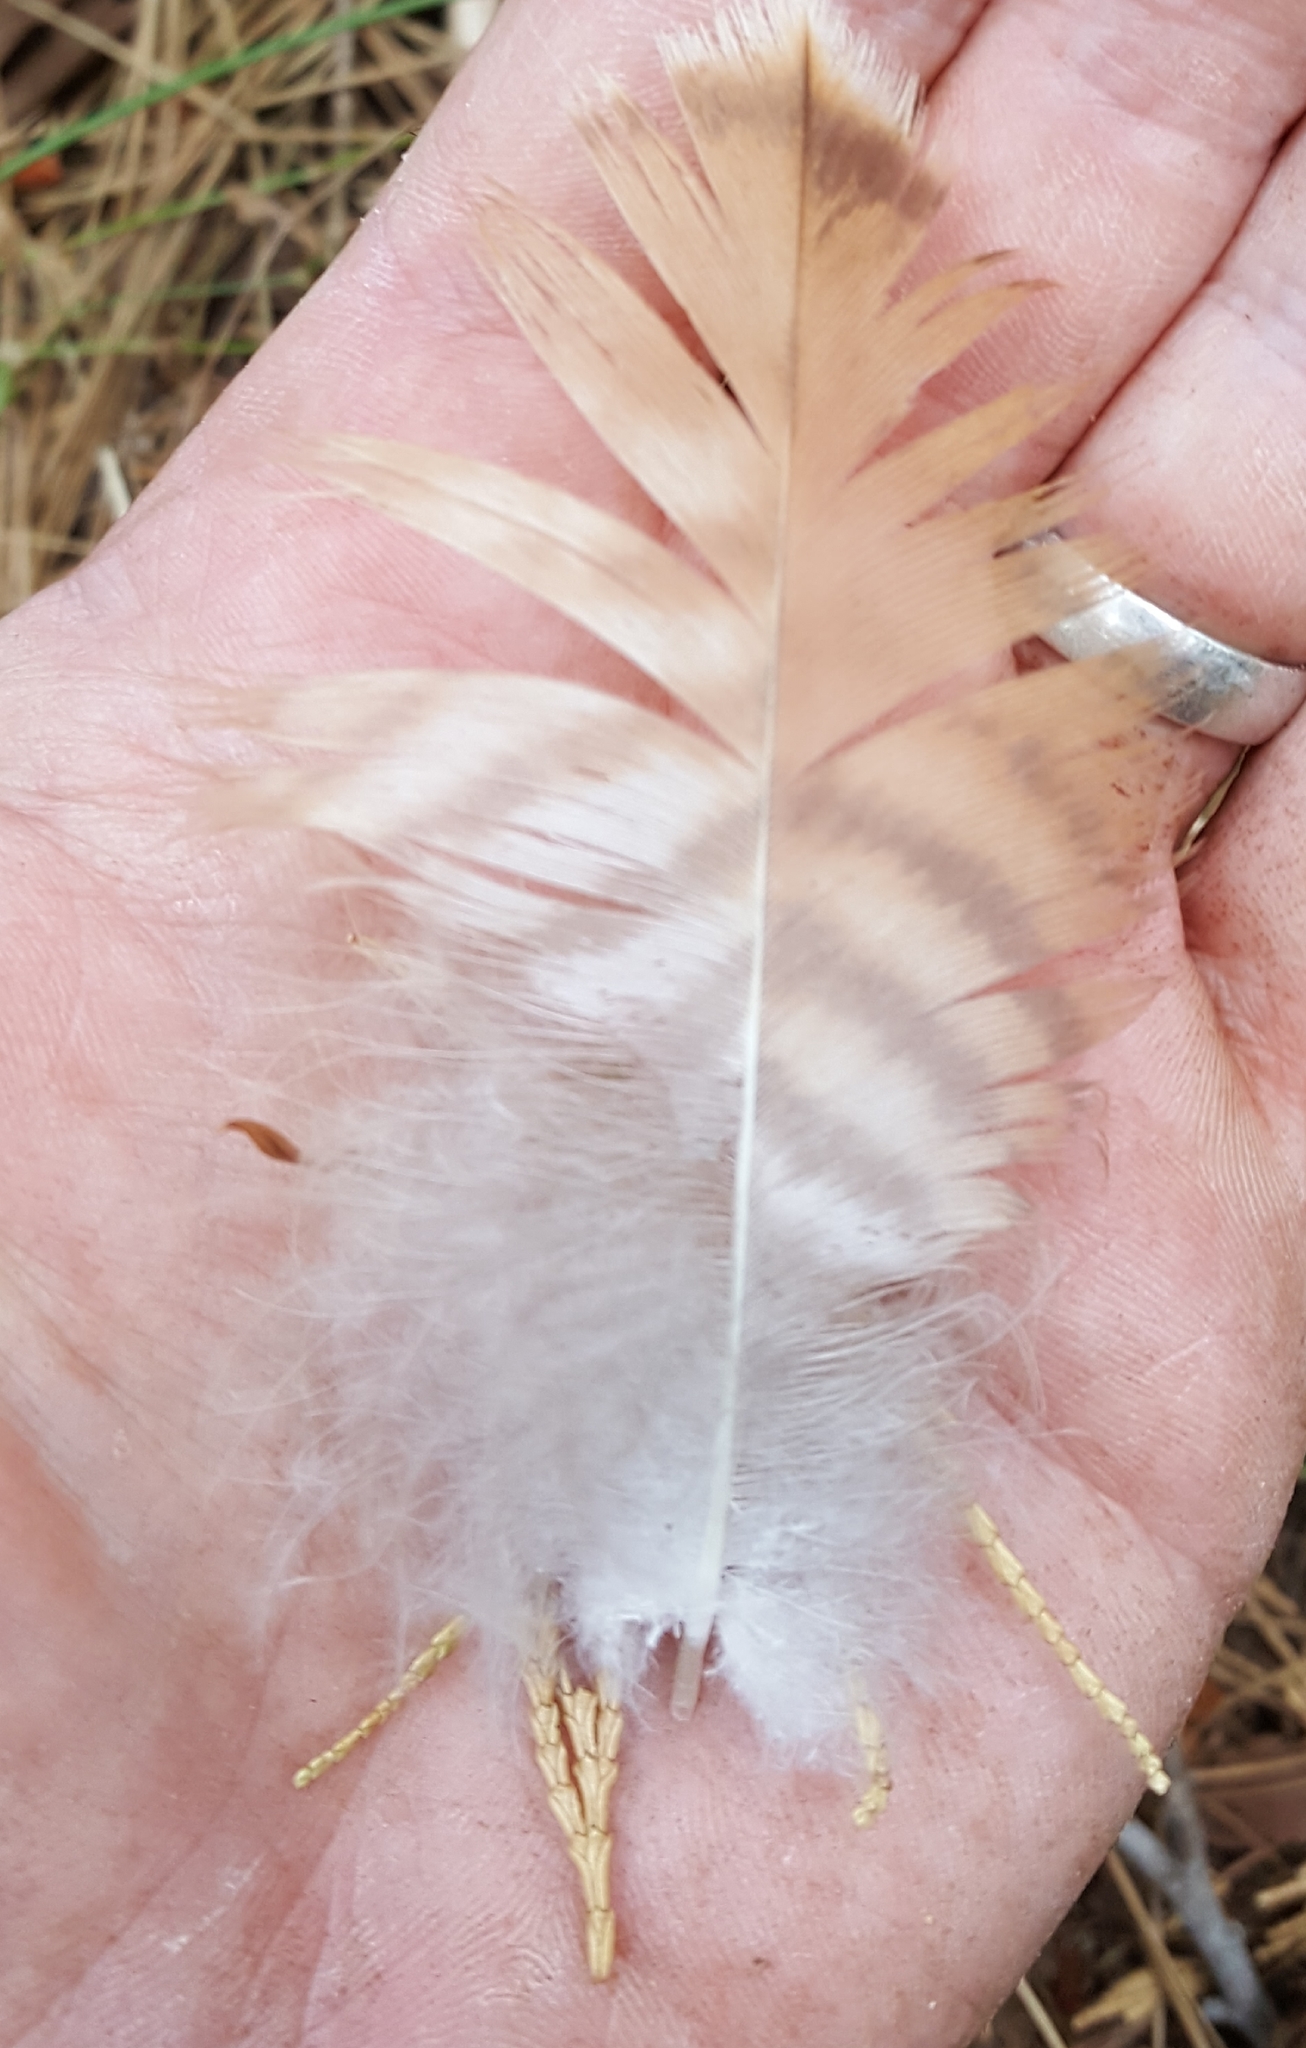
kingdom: Animalia
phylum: Chordata
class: Aves
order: Accipitriformes
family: Accipitridae
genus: Buteo
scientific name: Buteo jamaicensis
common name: Red-tailed hawk
